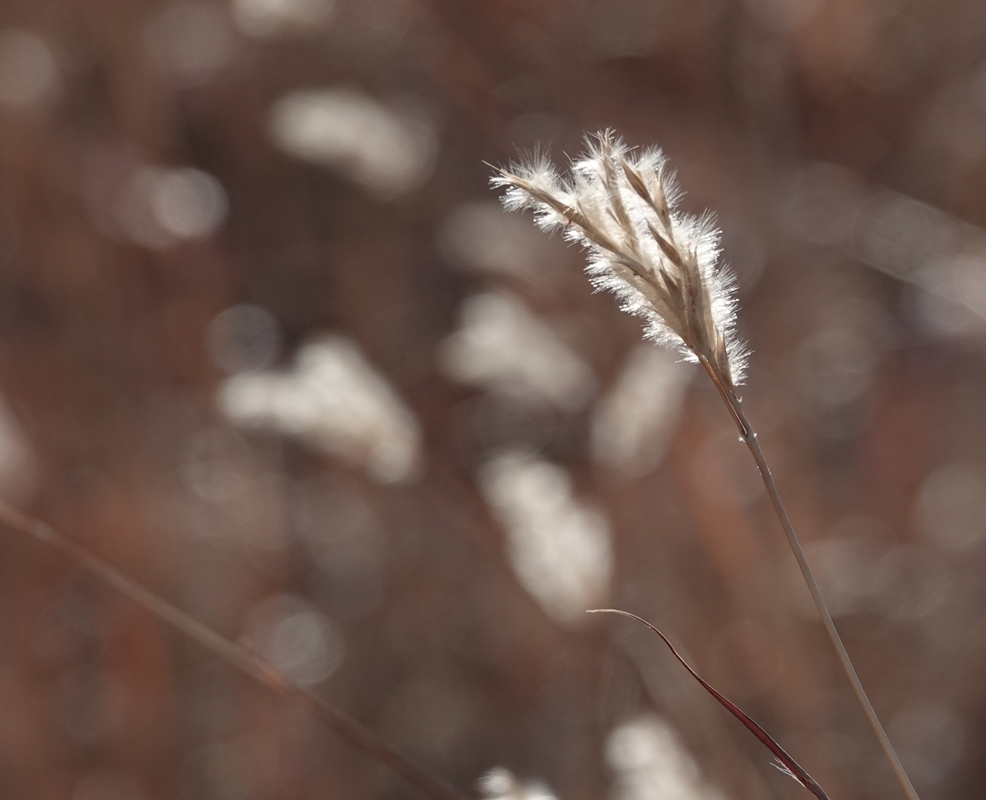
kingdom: Plantae
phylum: Tracheophyta
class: Liliopsida
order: Poales
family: Poaceae
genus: Andropogon
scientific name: Andropogon hallii
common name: Sand bluestem
